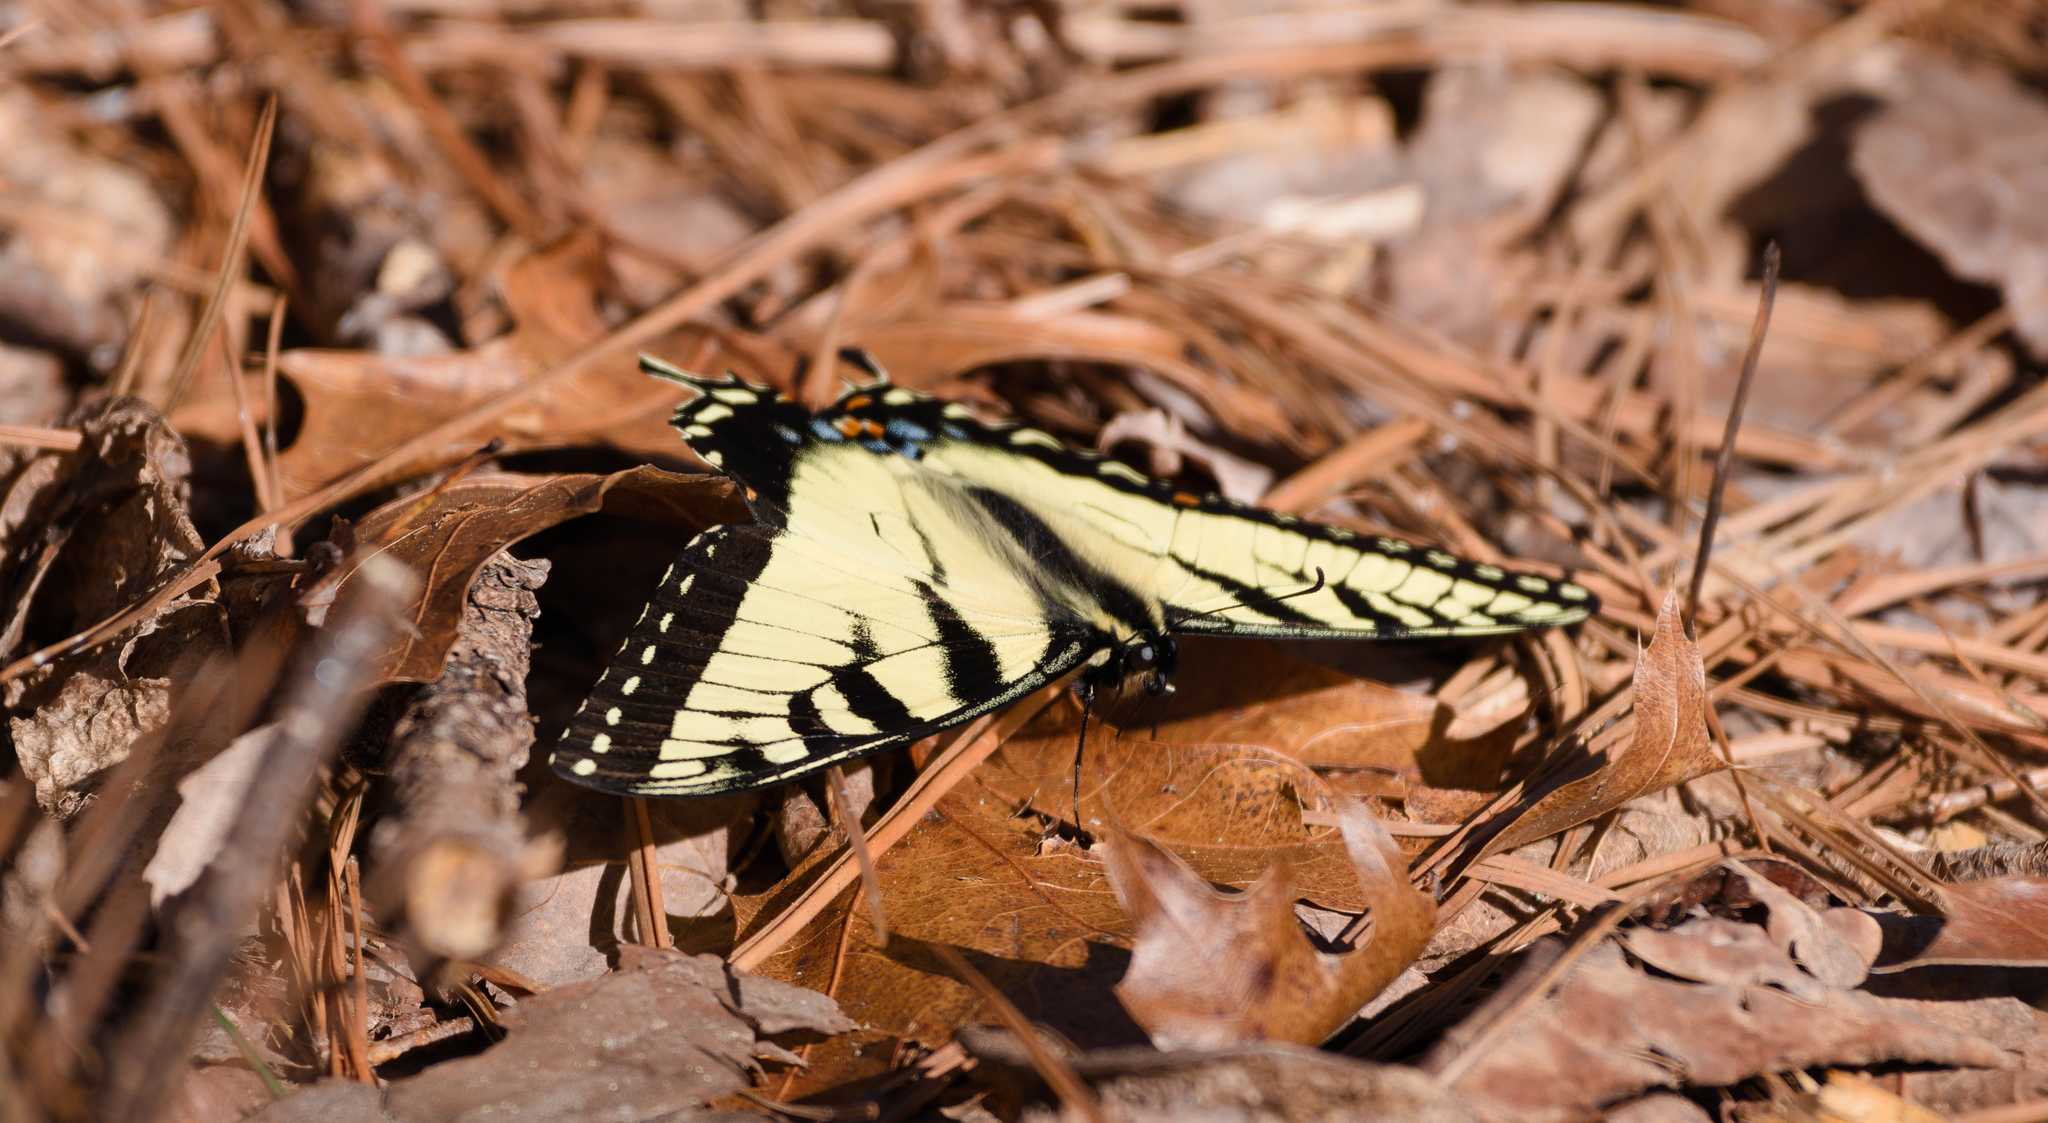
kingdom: Animalia
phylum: Arthropoda
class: Insecta
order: Lepidoptera
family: Papilionidae
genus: Papilio
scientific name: Papilio glaucus
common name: Tiger swallowtail
